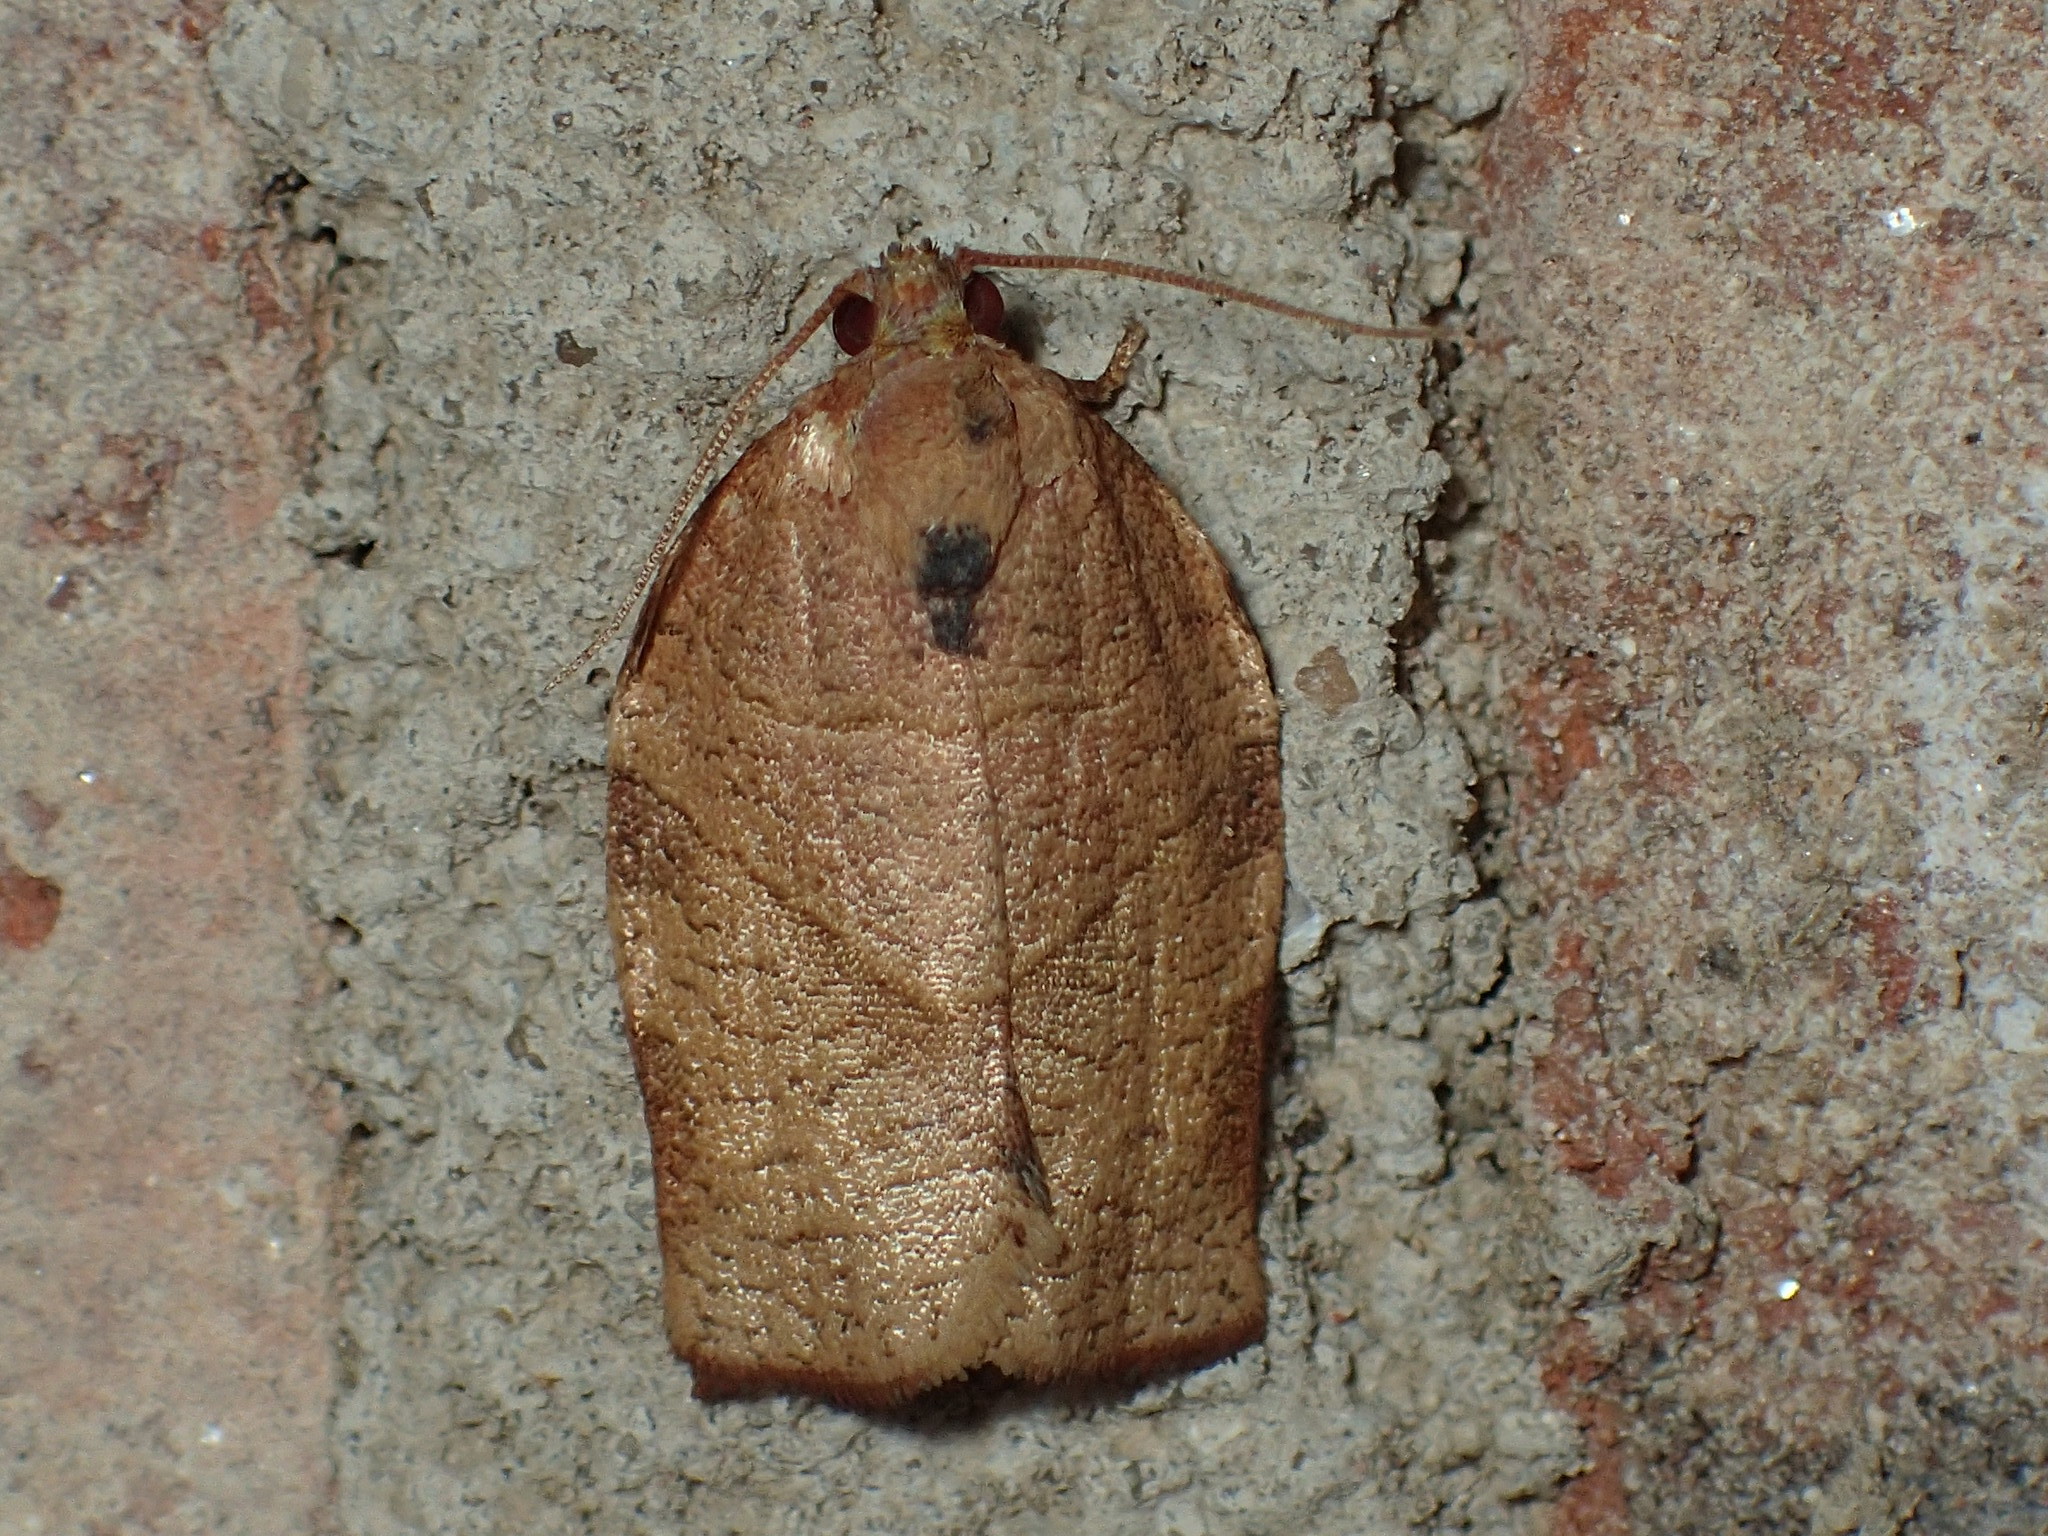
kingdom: Animalia
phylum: Arthropoda
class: Insecta
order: Lepidoptera
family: Tortricidae
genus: Choristoneura
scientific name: Choristoneura rosaceana
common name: Oblique-banded leafroller moth
